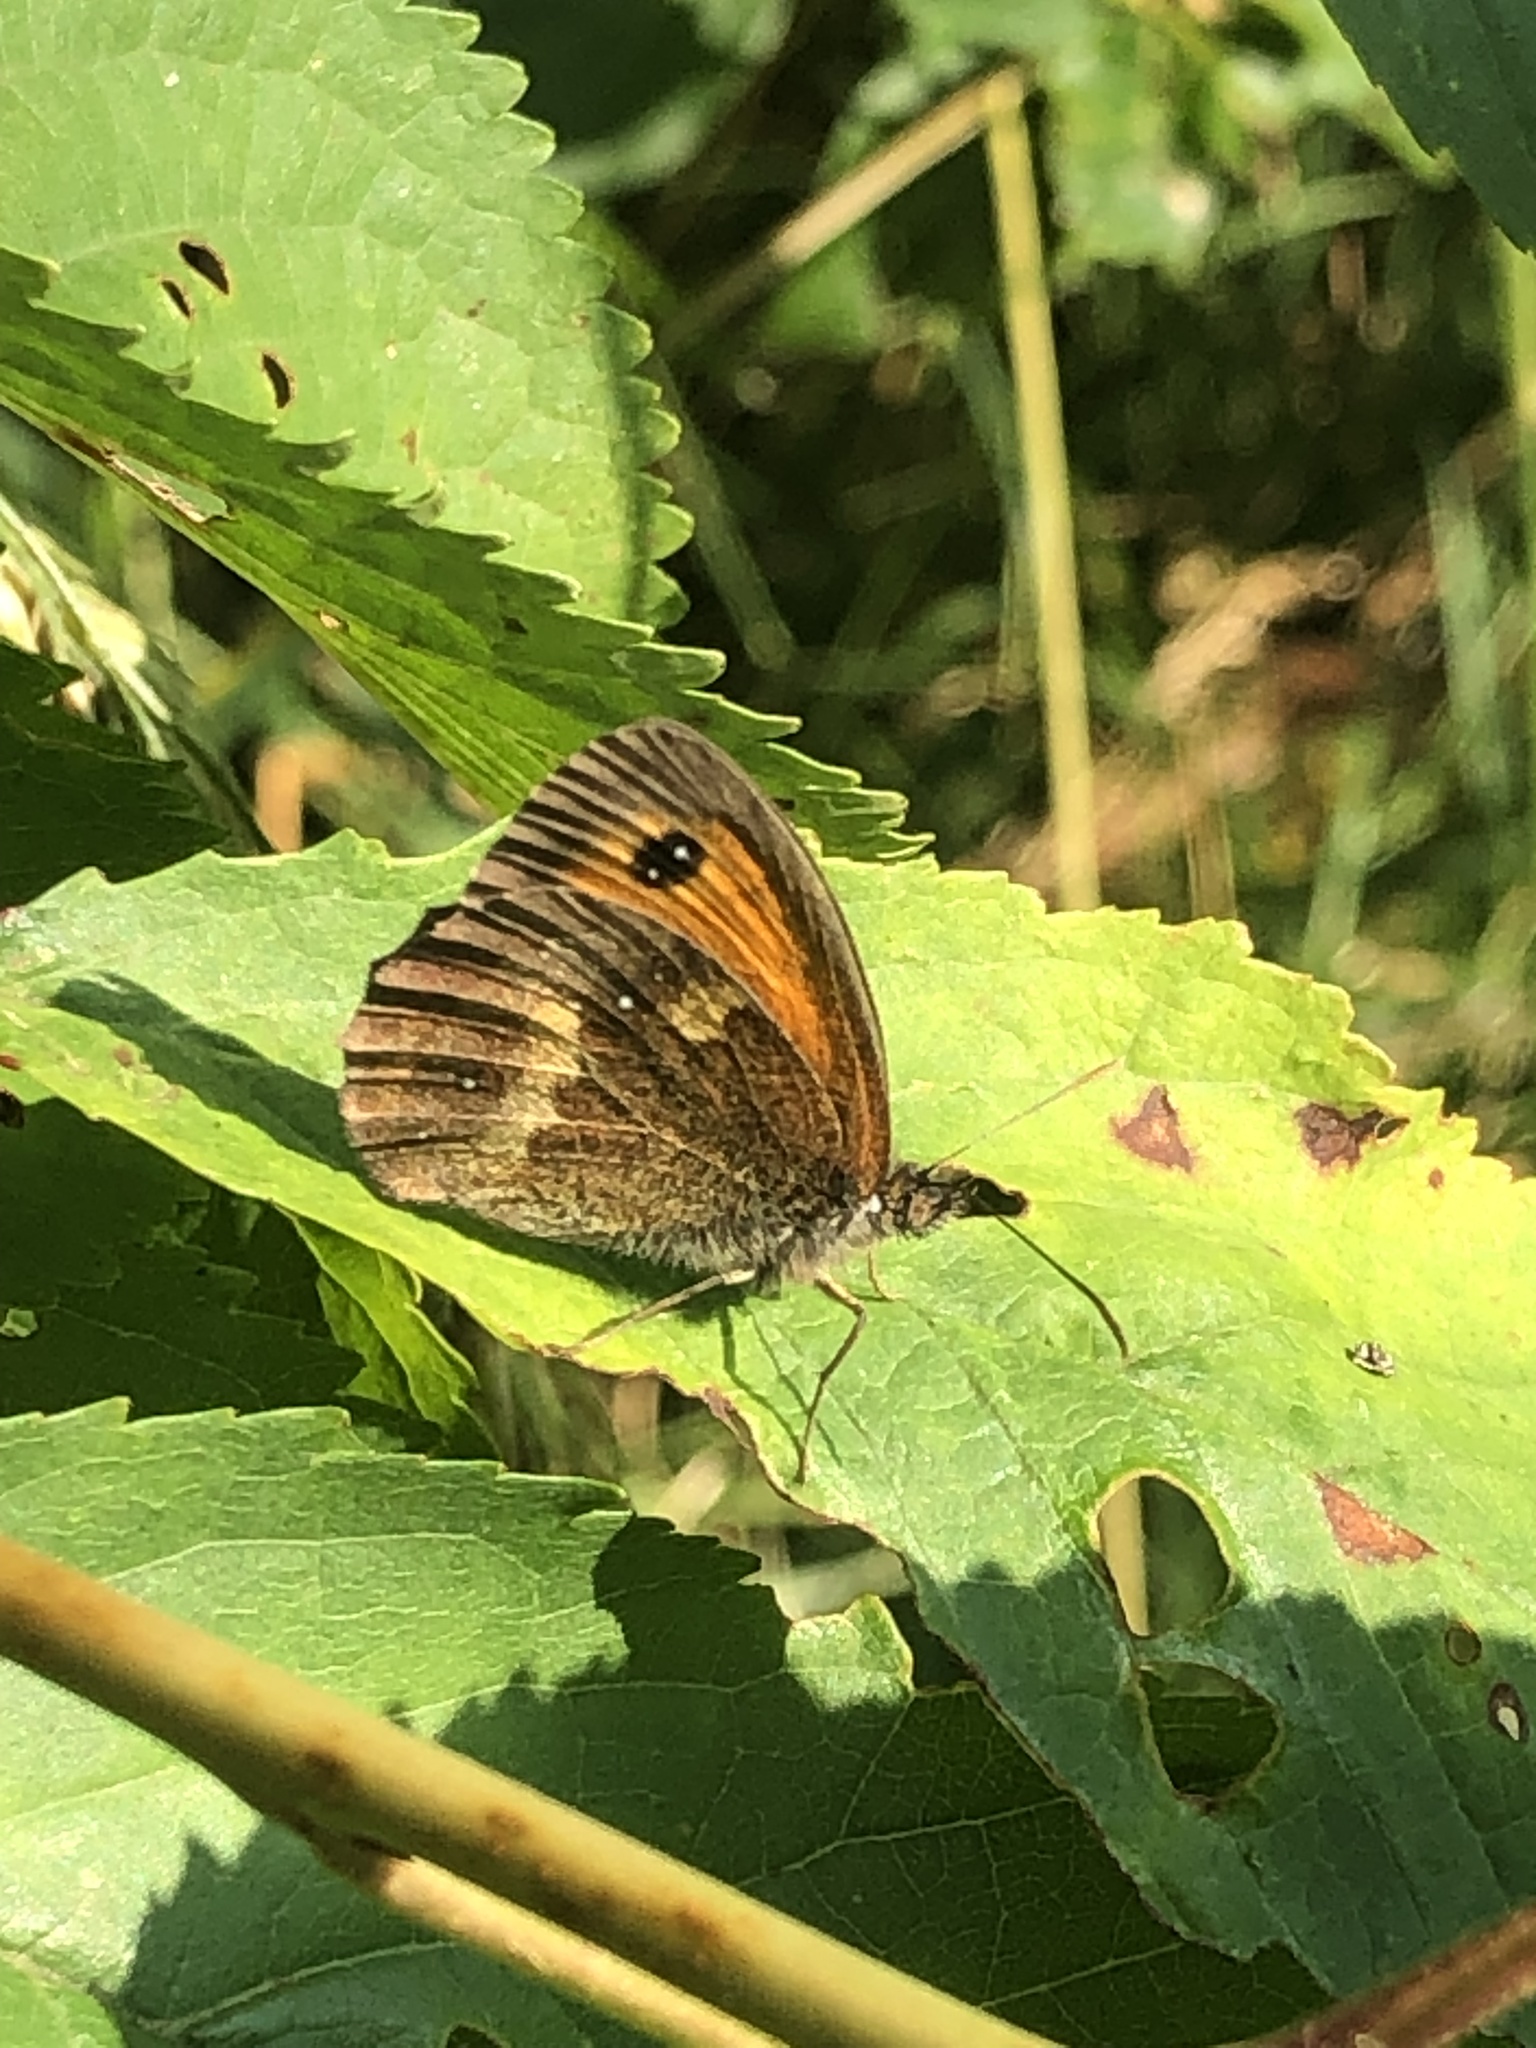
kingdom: Animalia
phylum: Arthropoda
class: Insecta
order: Lepidoptera
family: Nymphalidae
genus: Maniola
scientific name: Maniola jurtina
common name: Meadow brown
